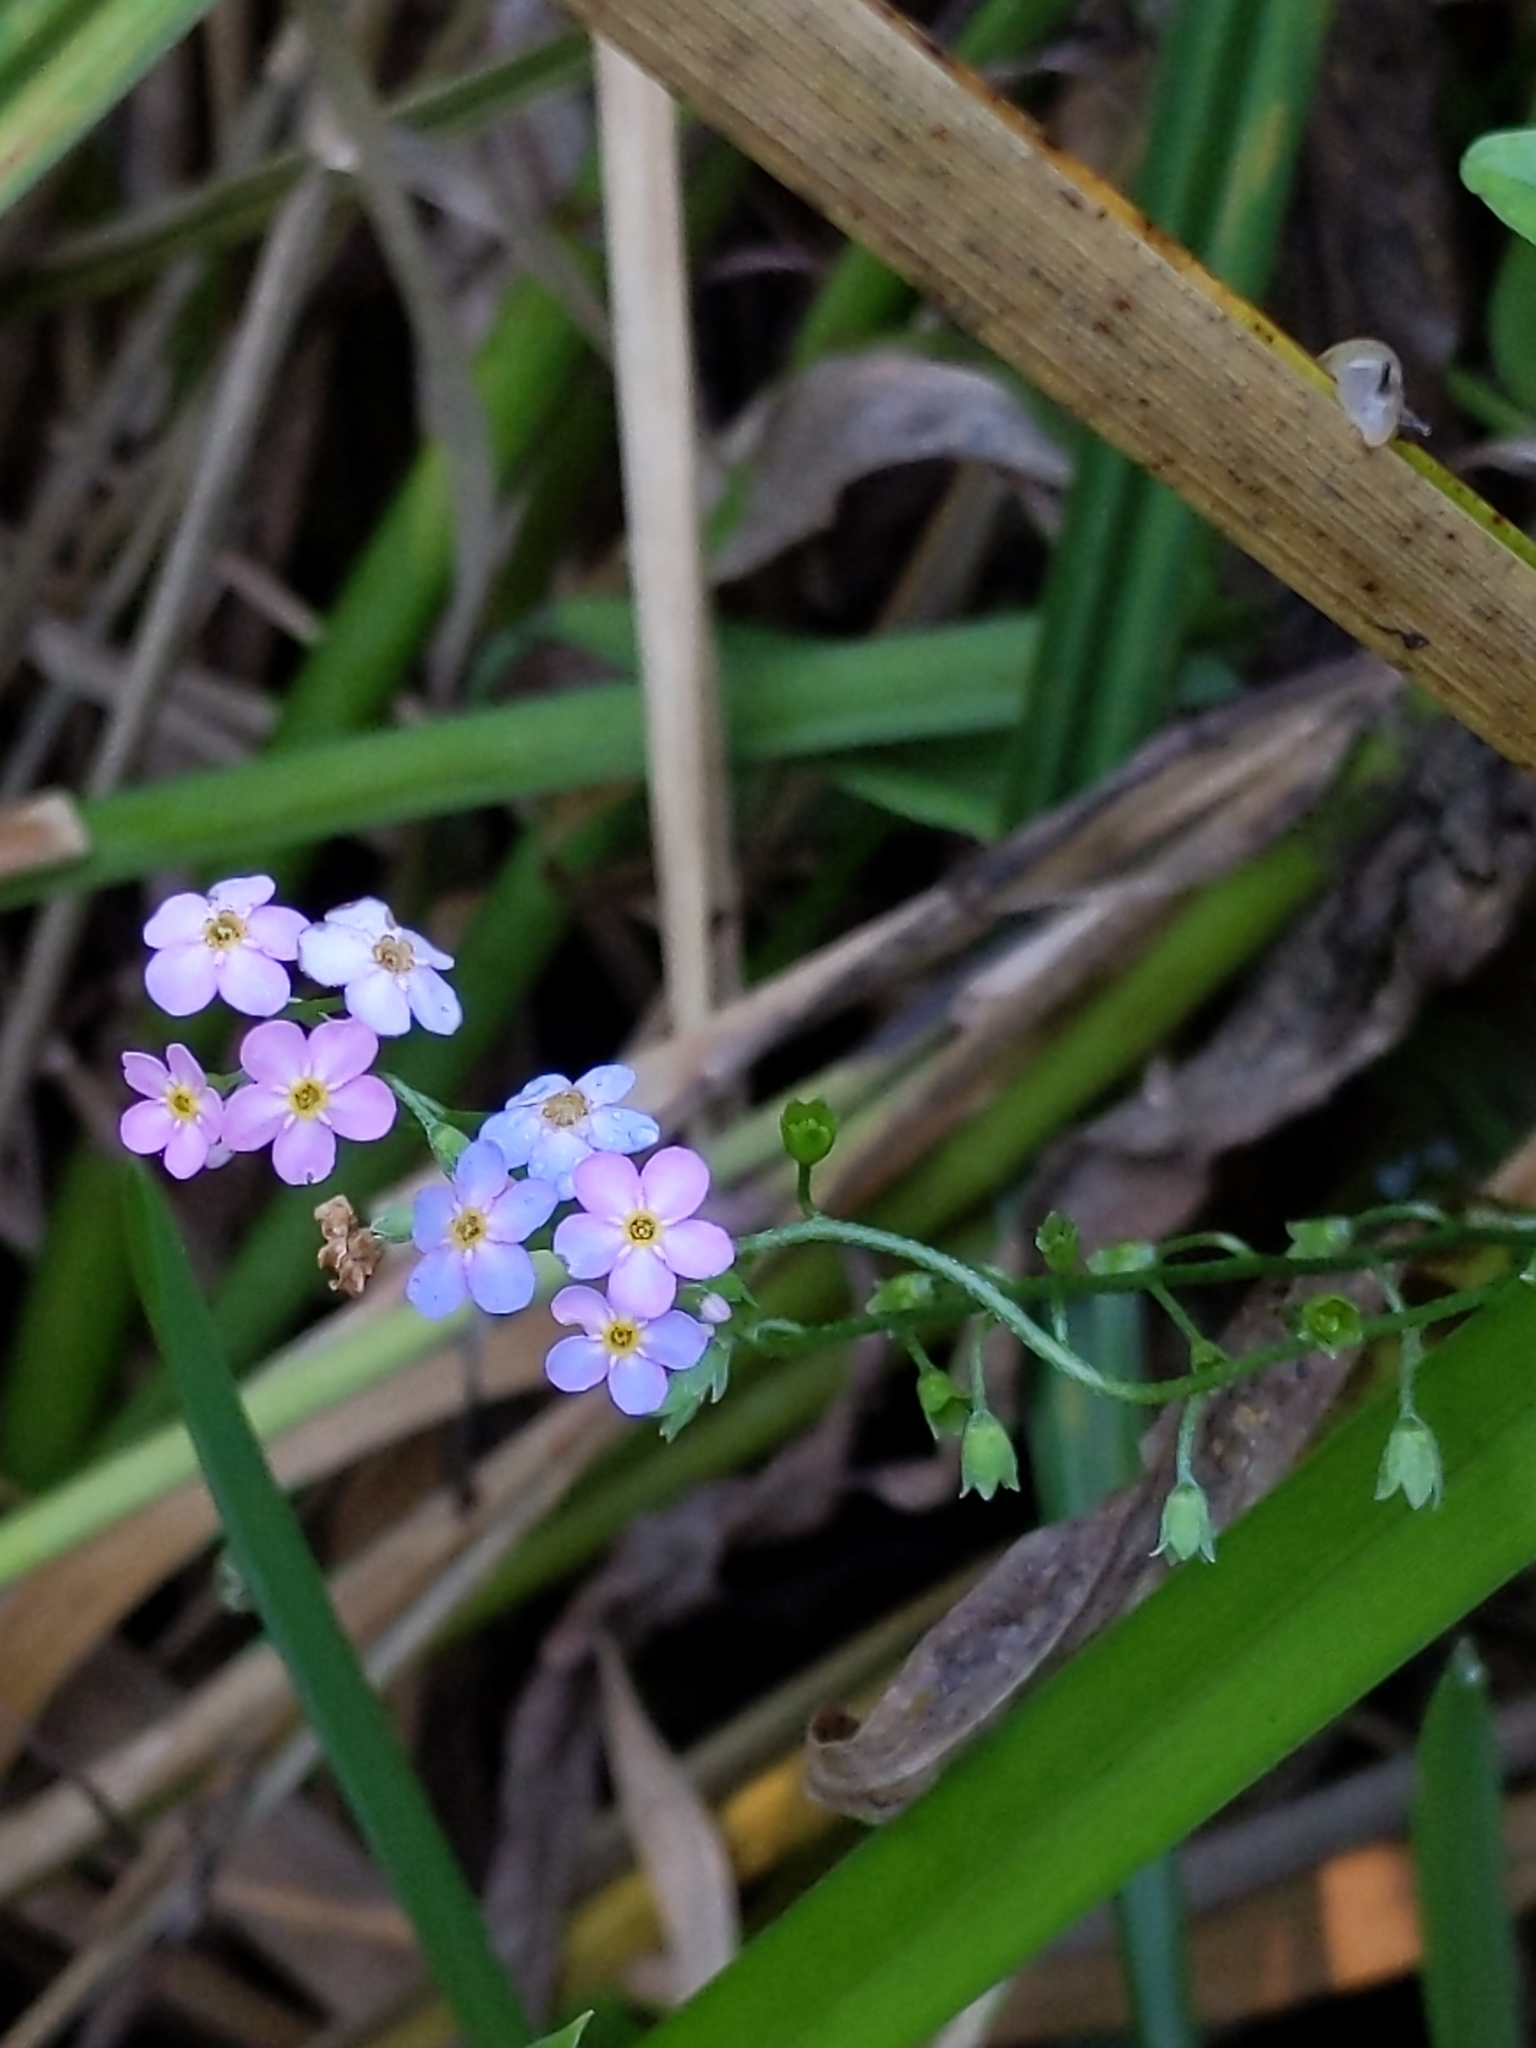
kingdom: Plantae
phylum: Tracheophyta
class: Magnoliopsida
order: Boraginales
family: Boraginaceae
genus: Myosotis
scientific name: Myosotis scorpioides
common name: Water forget-me-not
